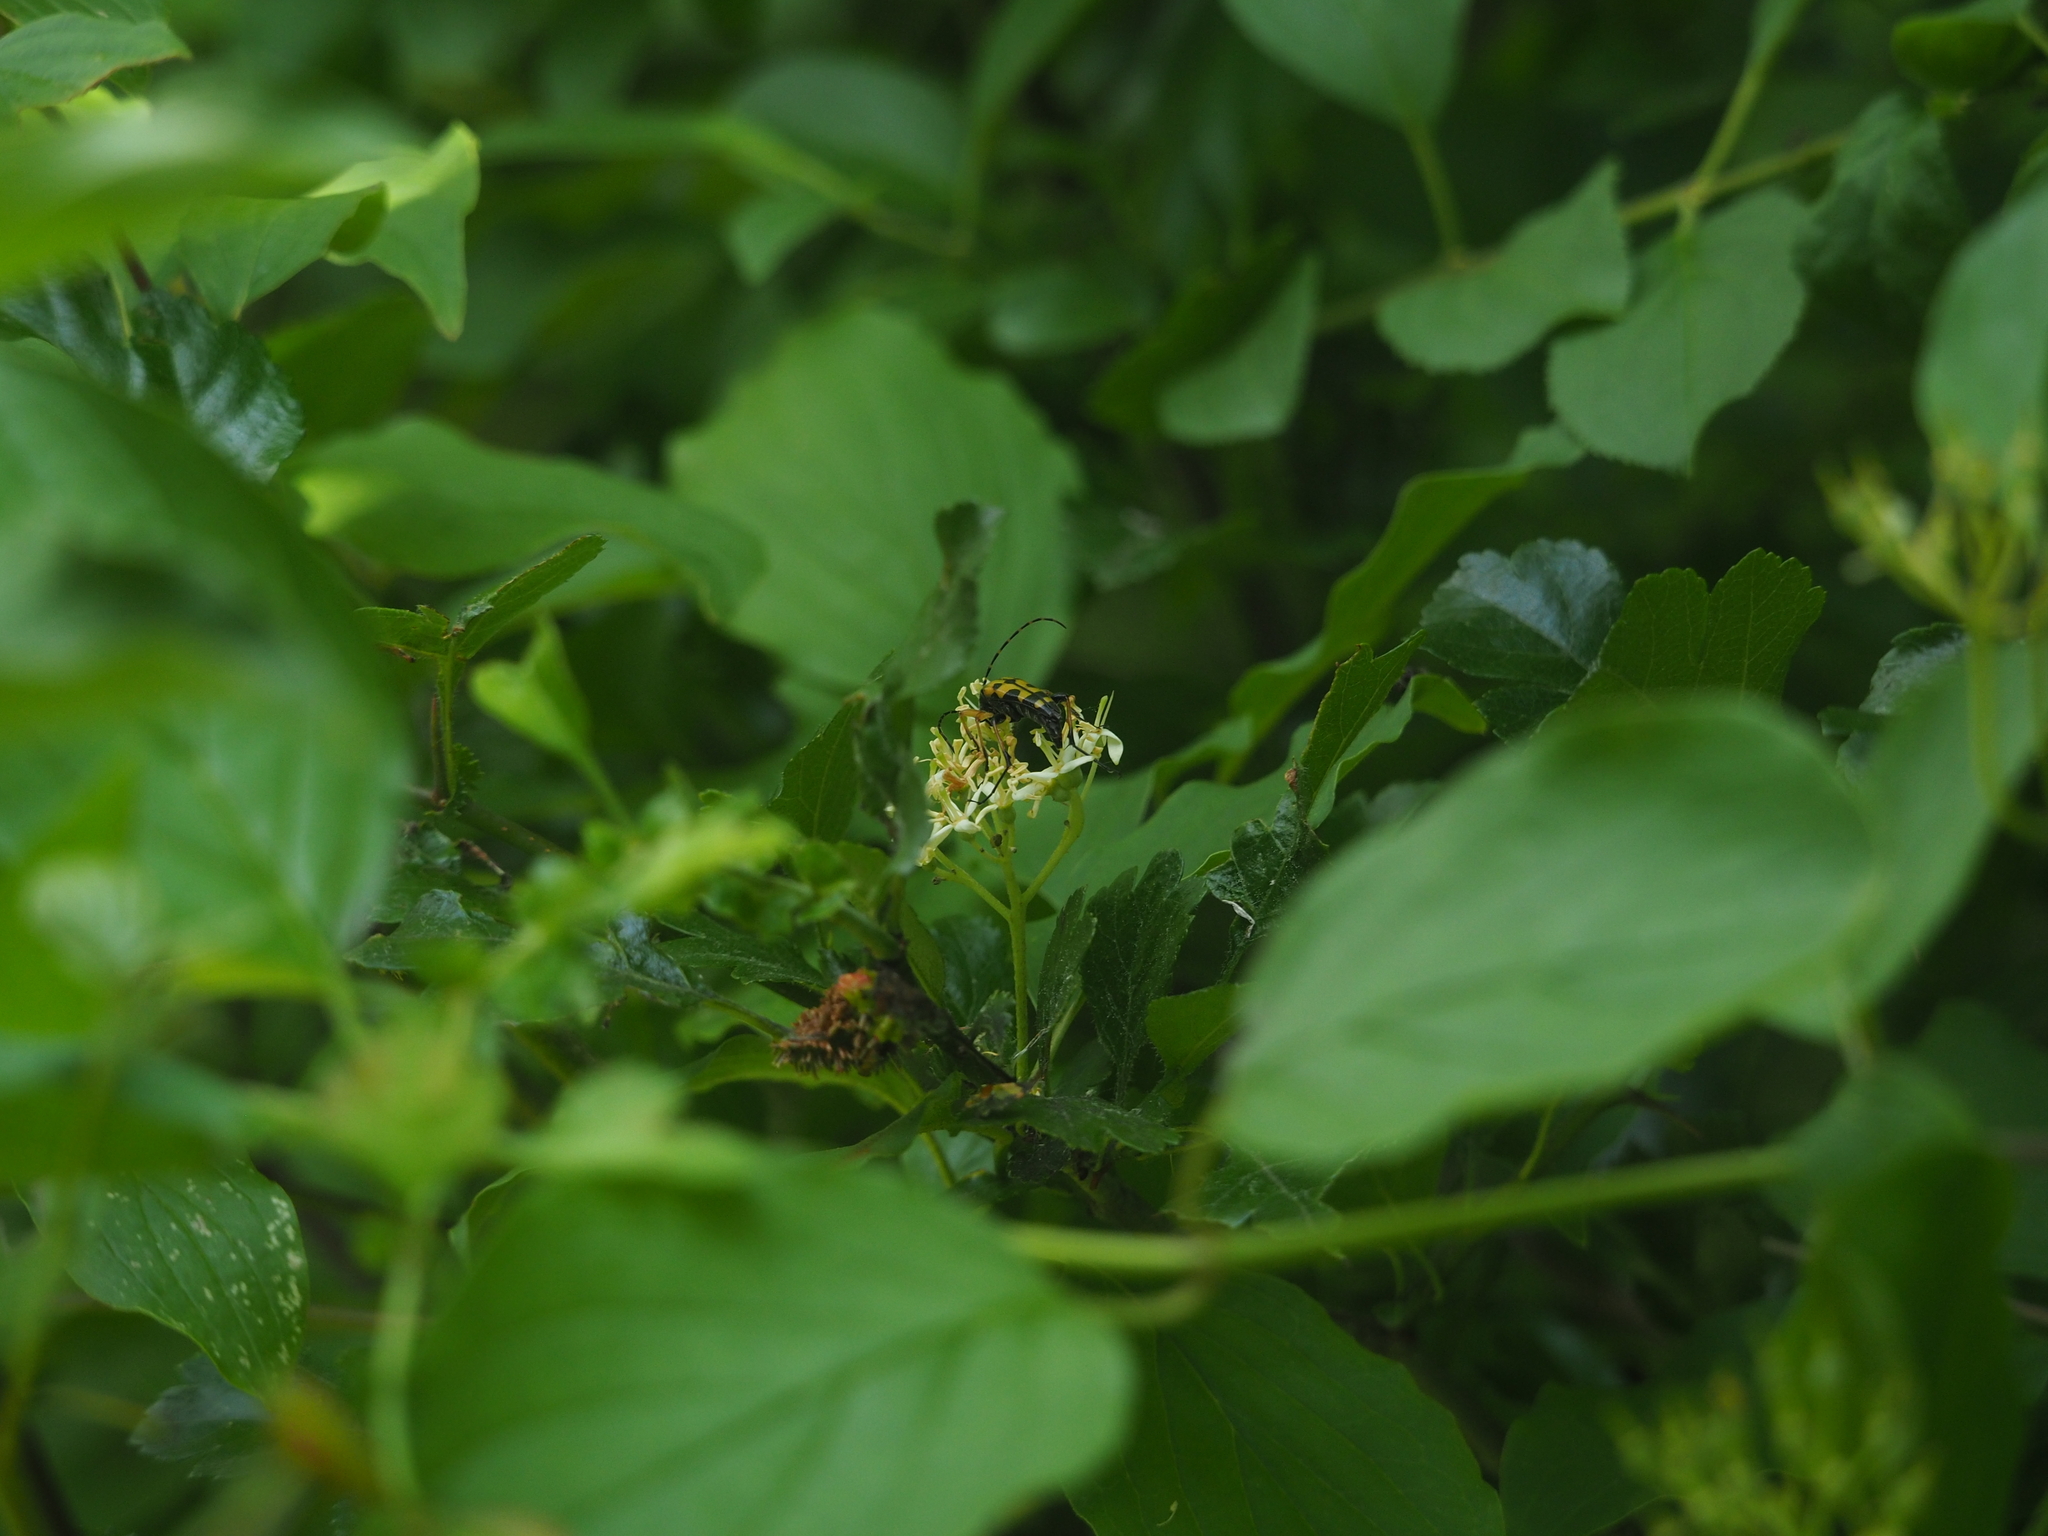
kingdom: Animalia
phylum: Arthropoda
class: Insecta
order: Coleoptera
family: Cerambycidae
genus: Rutpela
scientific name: Rutpela maculata
